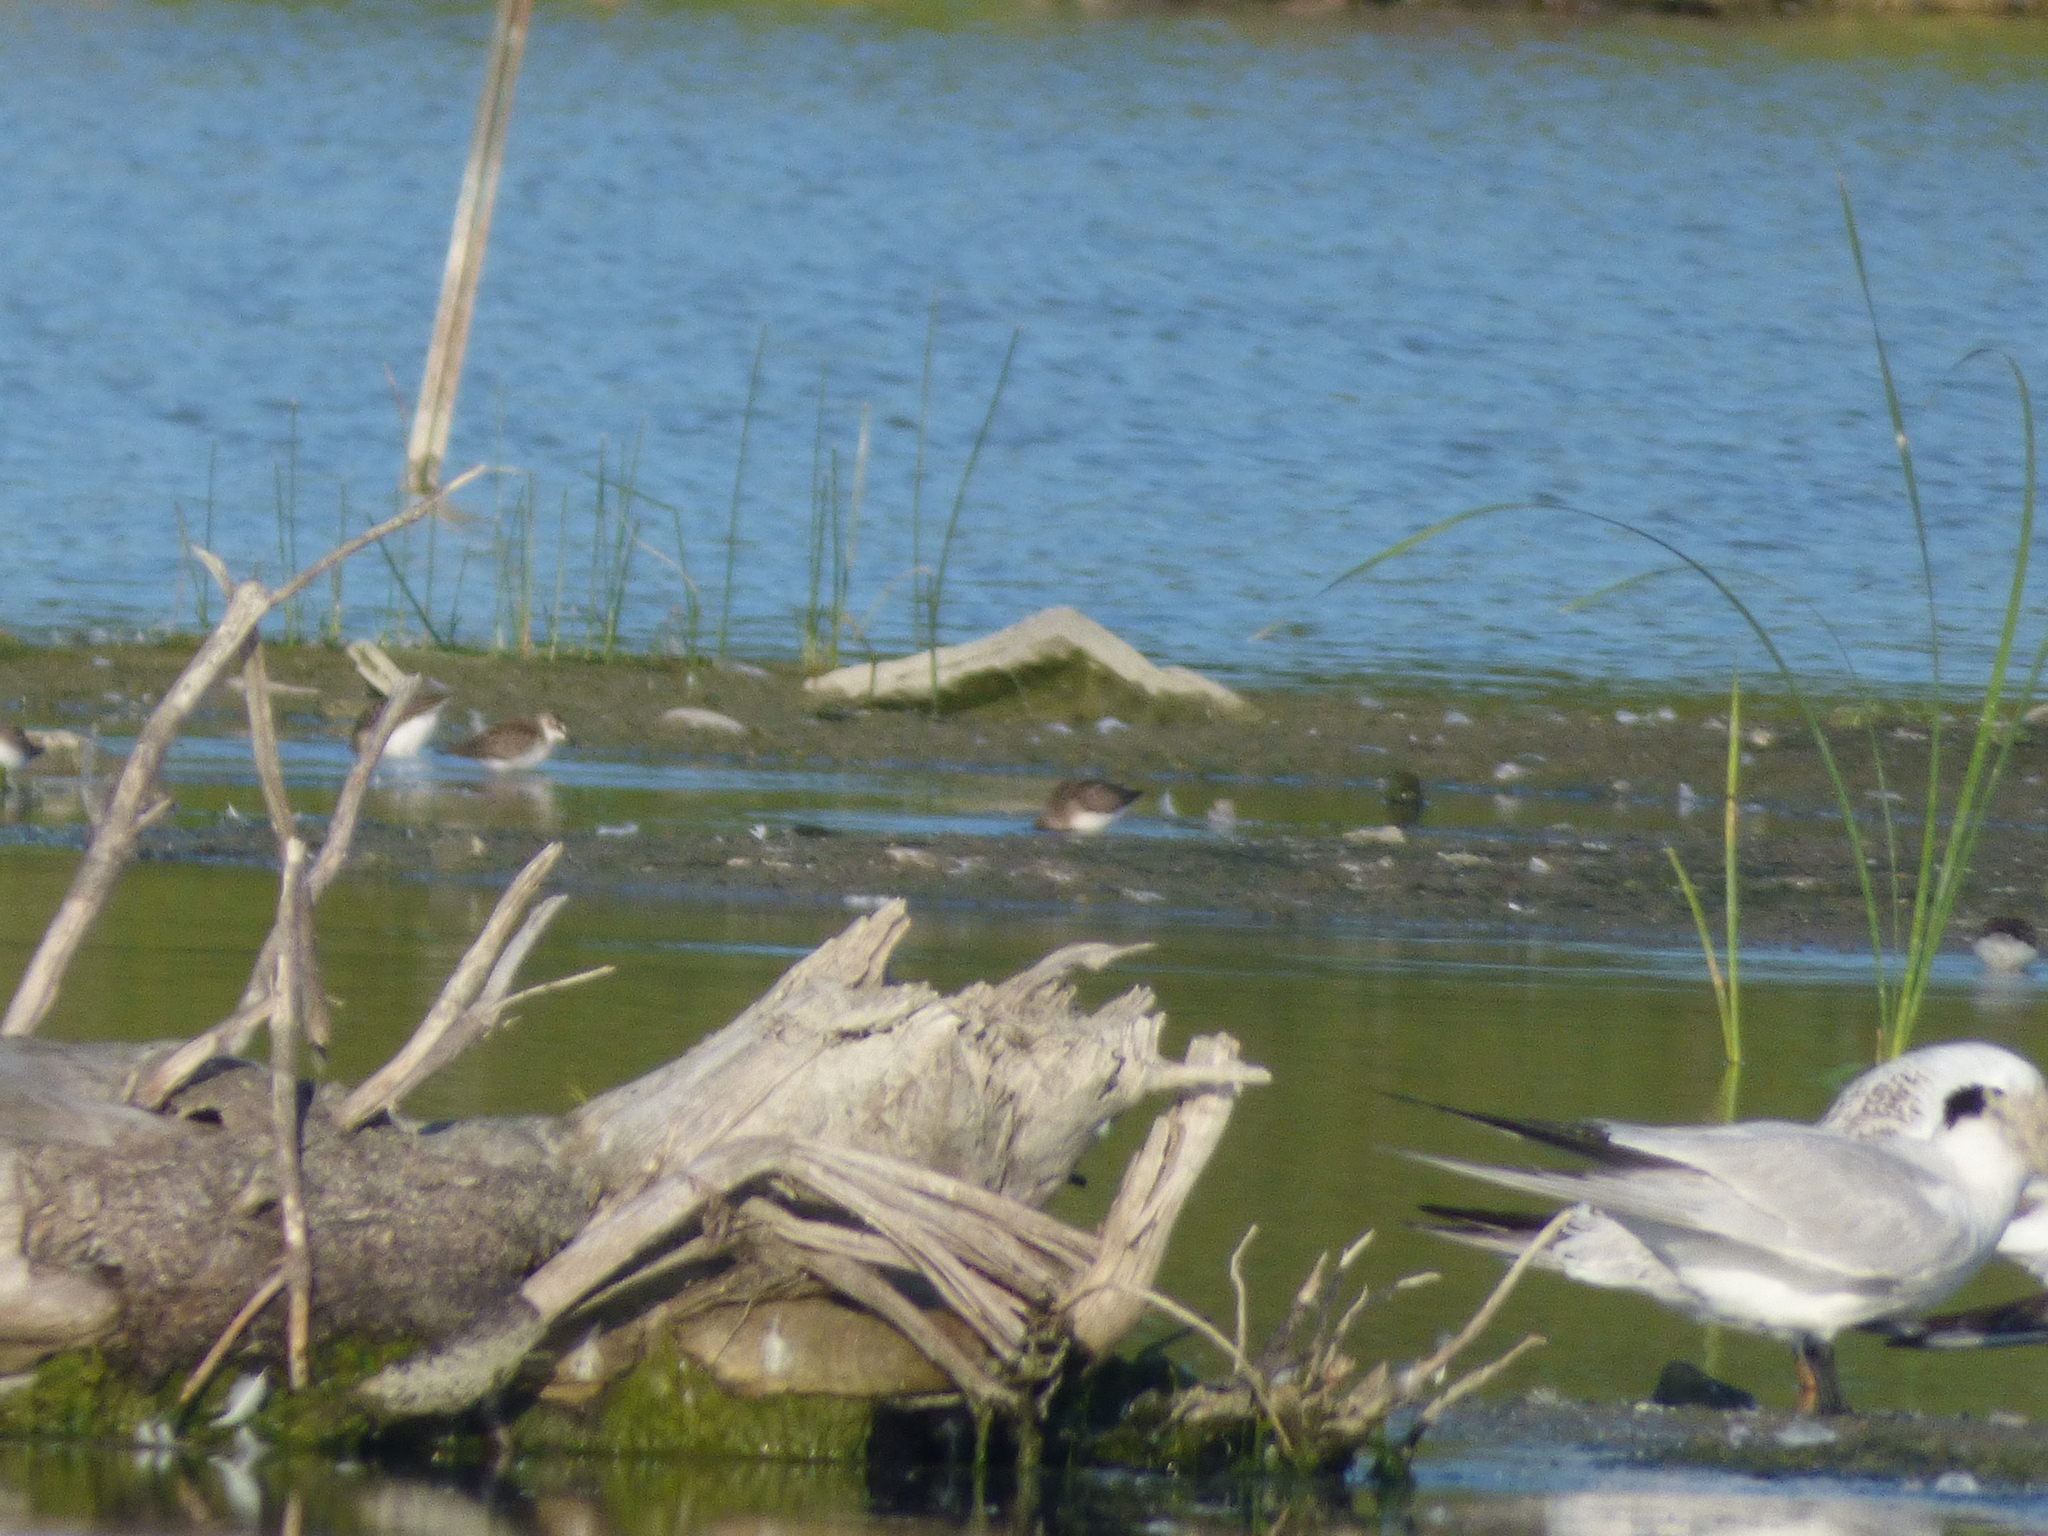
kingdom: Animalia
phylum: Chordata
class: Aves
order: Charadriiformes
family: Scolopacidae
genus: Calidris
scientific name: Calidris pusilla
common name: Semipalmated sandpiper
